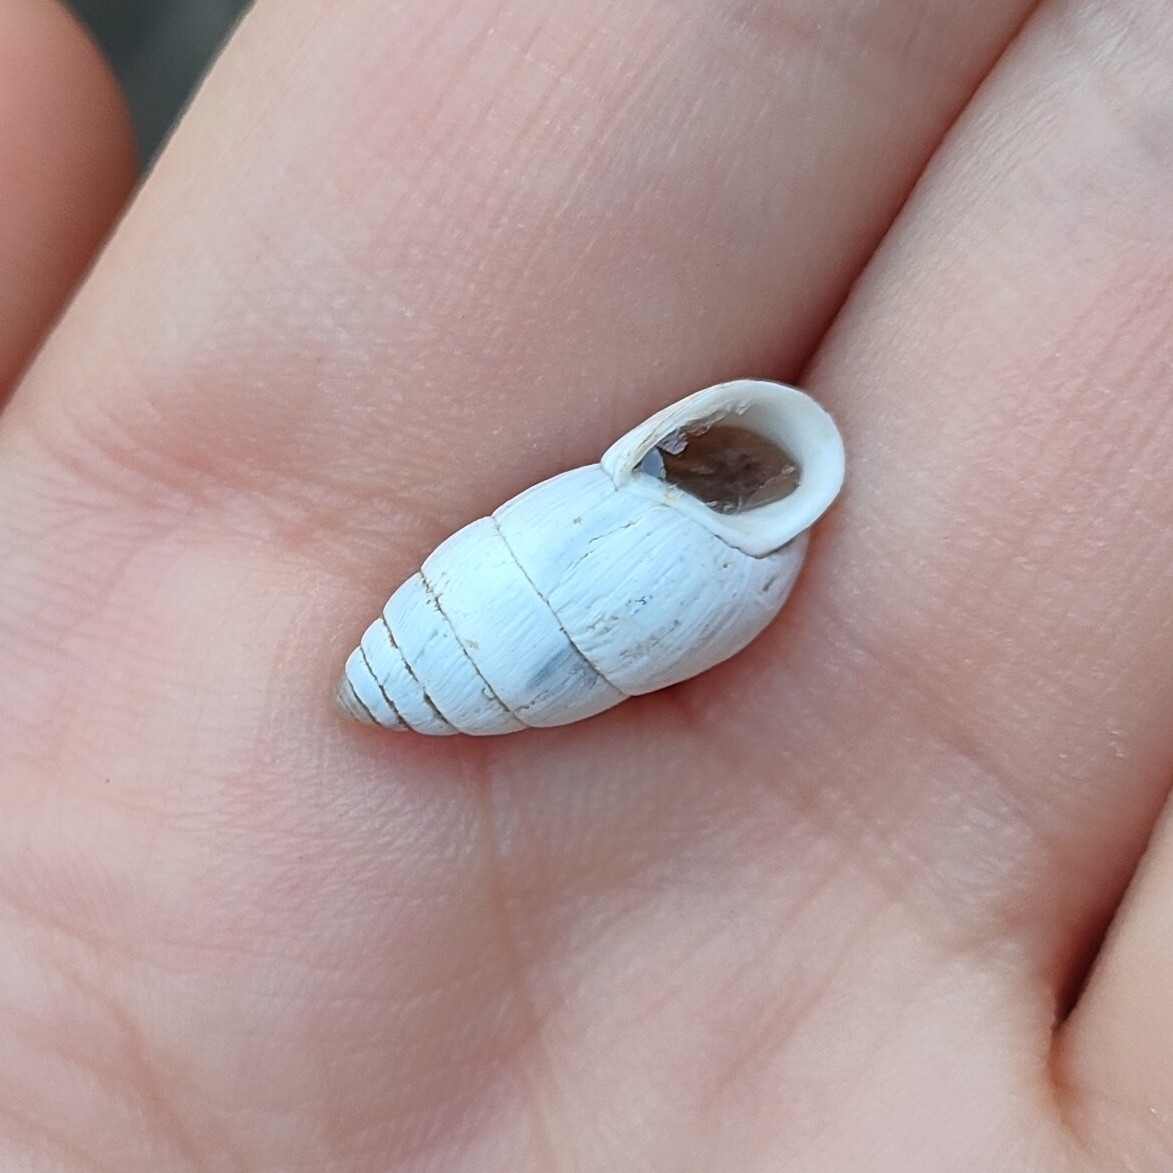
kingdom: Animalia
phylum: Mollusca
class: Gastropoda
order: Stylommatophora
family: Enidae
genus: Brephulopsis
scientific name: Brephulopsis cylindrica
